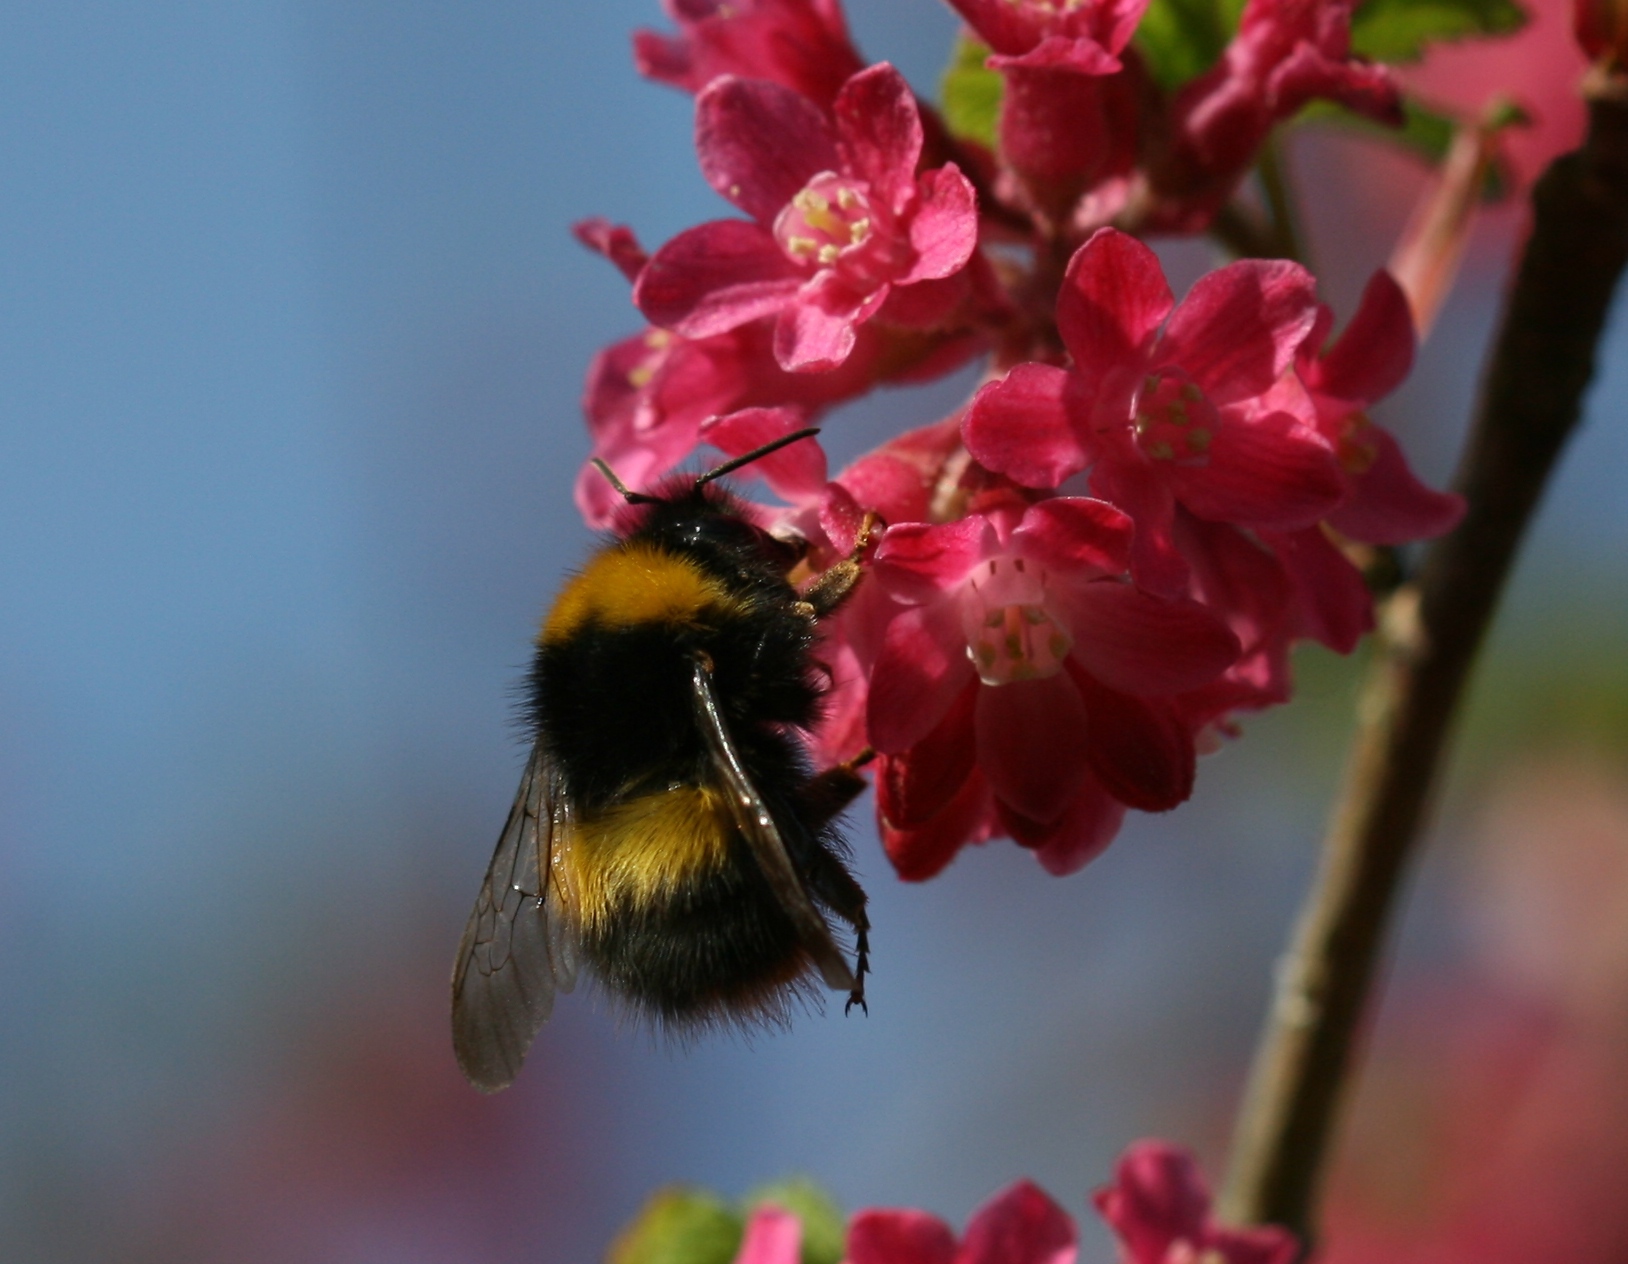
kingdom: Animalia
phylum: Arthropoda
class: Insecta
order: Hymenoptera
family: Apidae
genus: Bombus
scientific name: Bombus pratorum
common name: Early humble-bee
